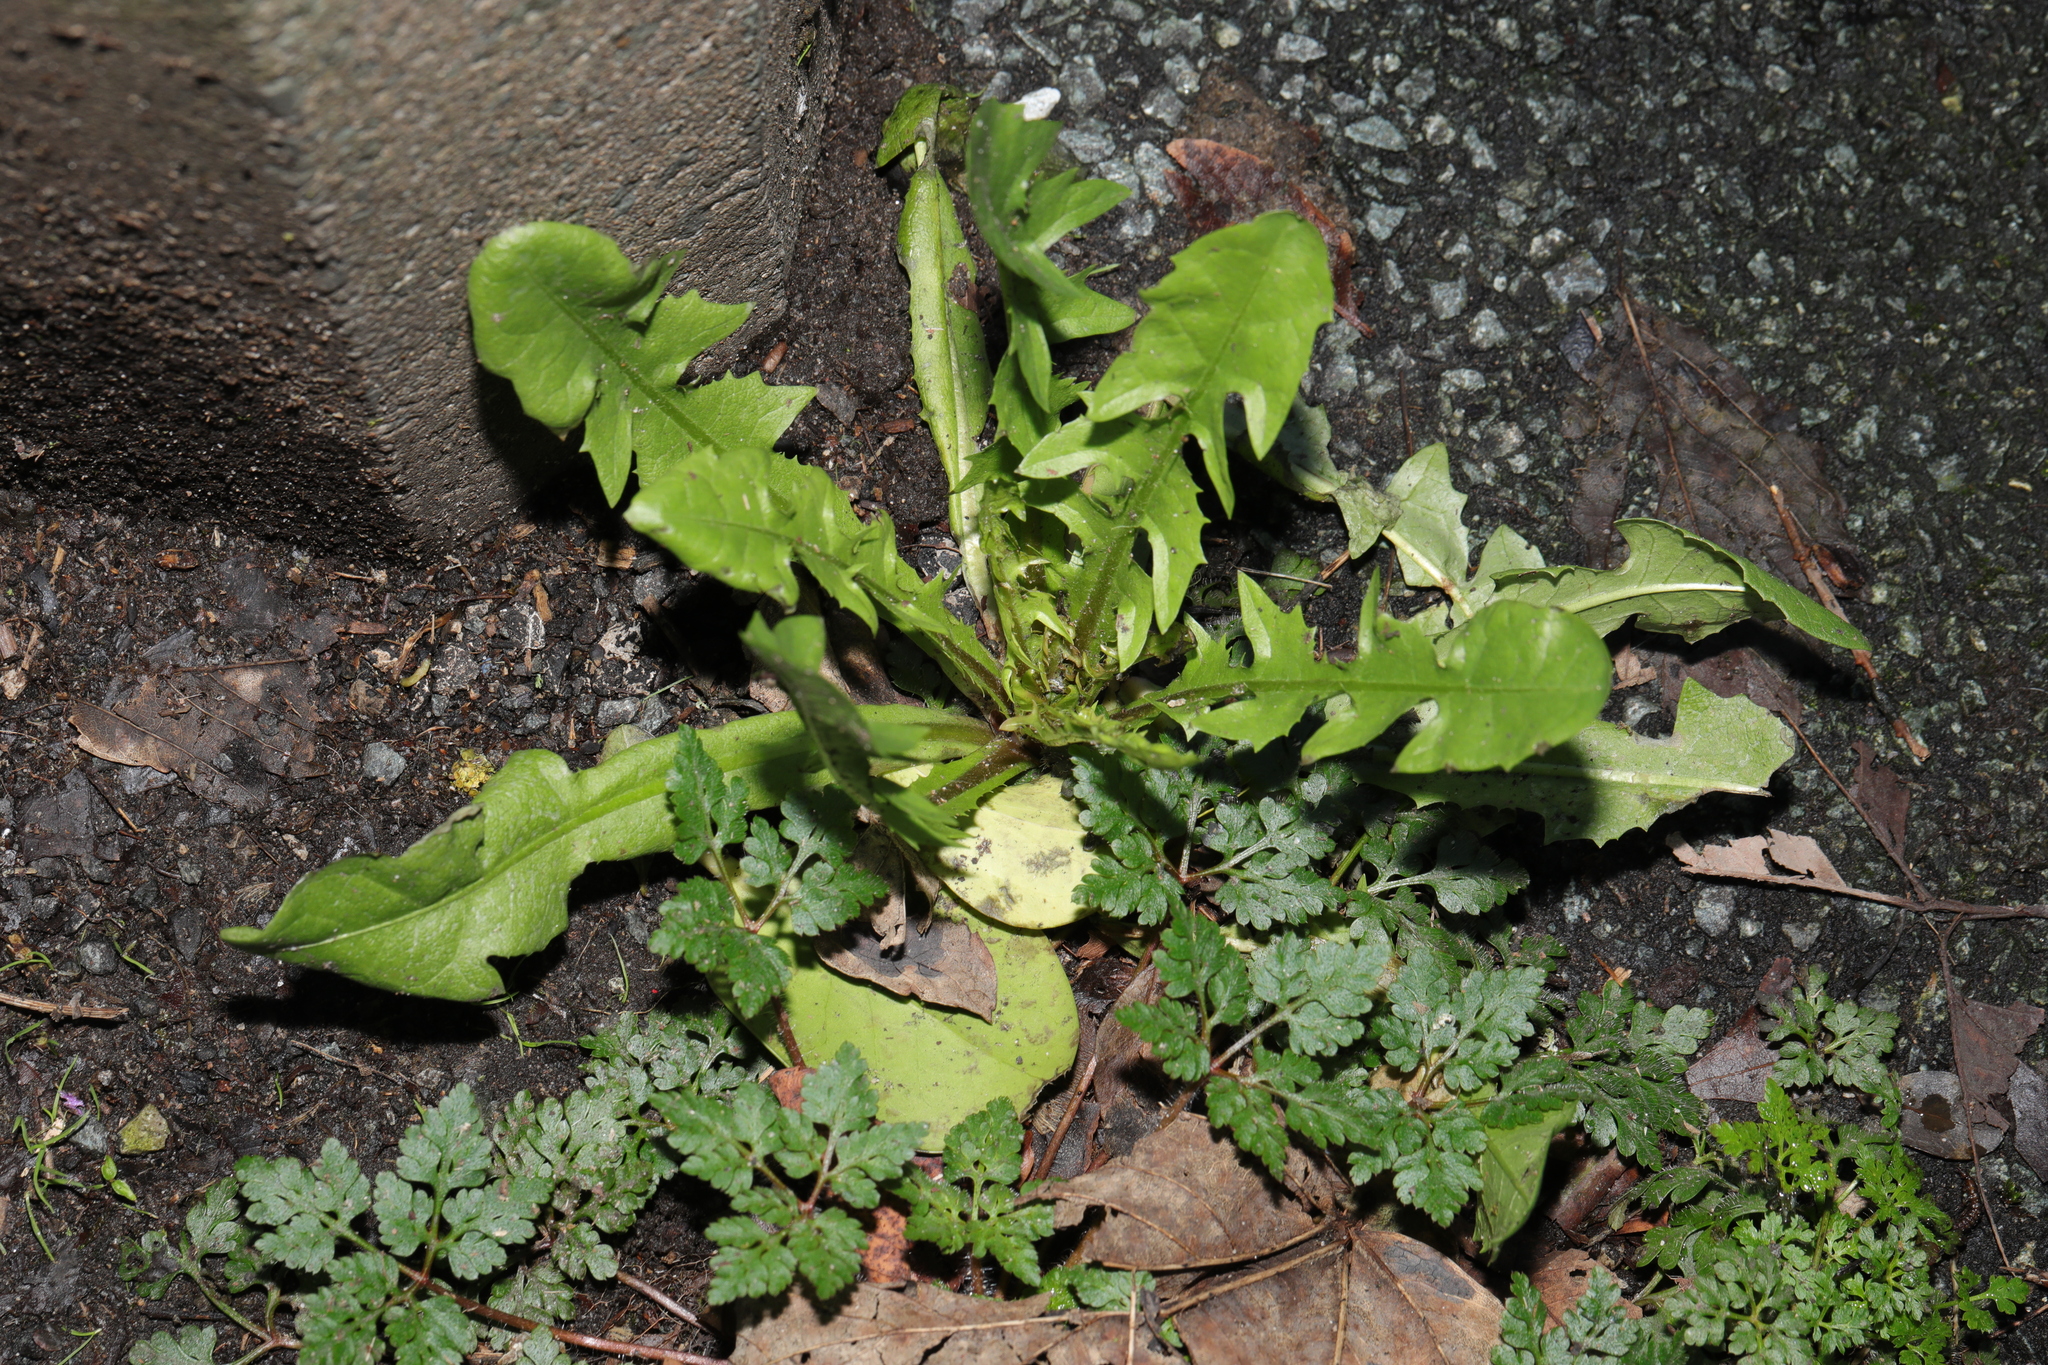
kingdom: Plantae
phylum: Tracheophyta
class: Magnoliopsida
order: Asterales
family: Asteraceae
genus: Taraxacum
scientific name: Taraxacum officinale
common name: Common dandelion
